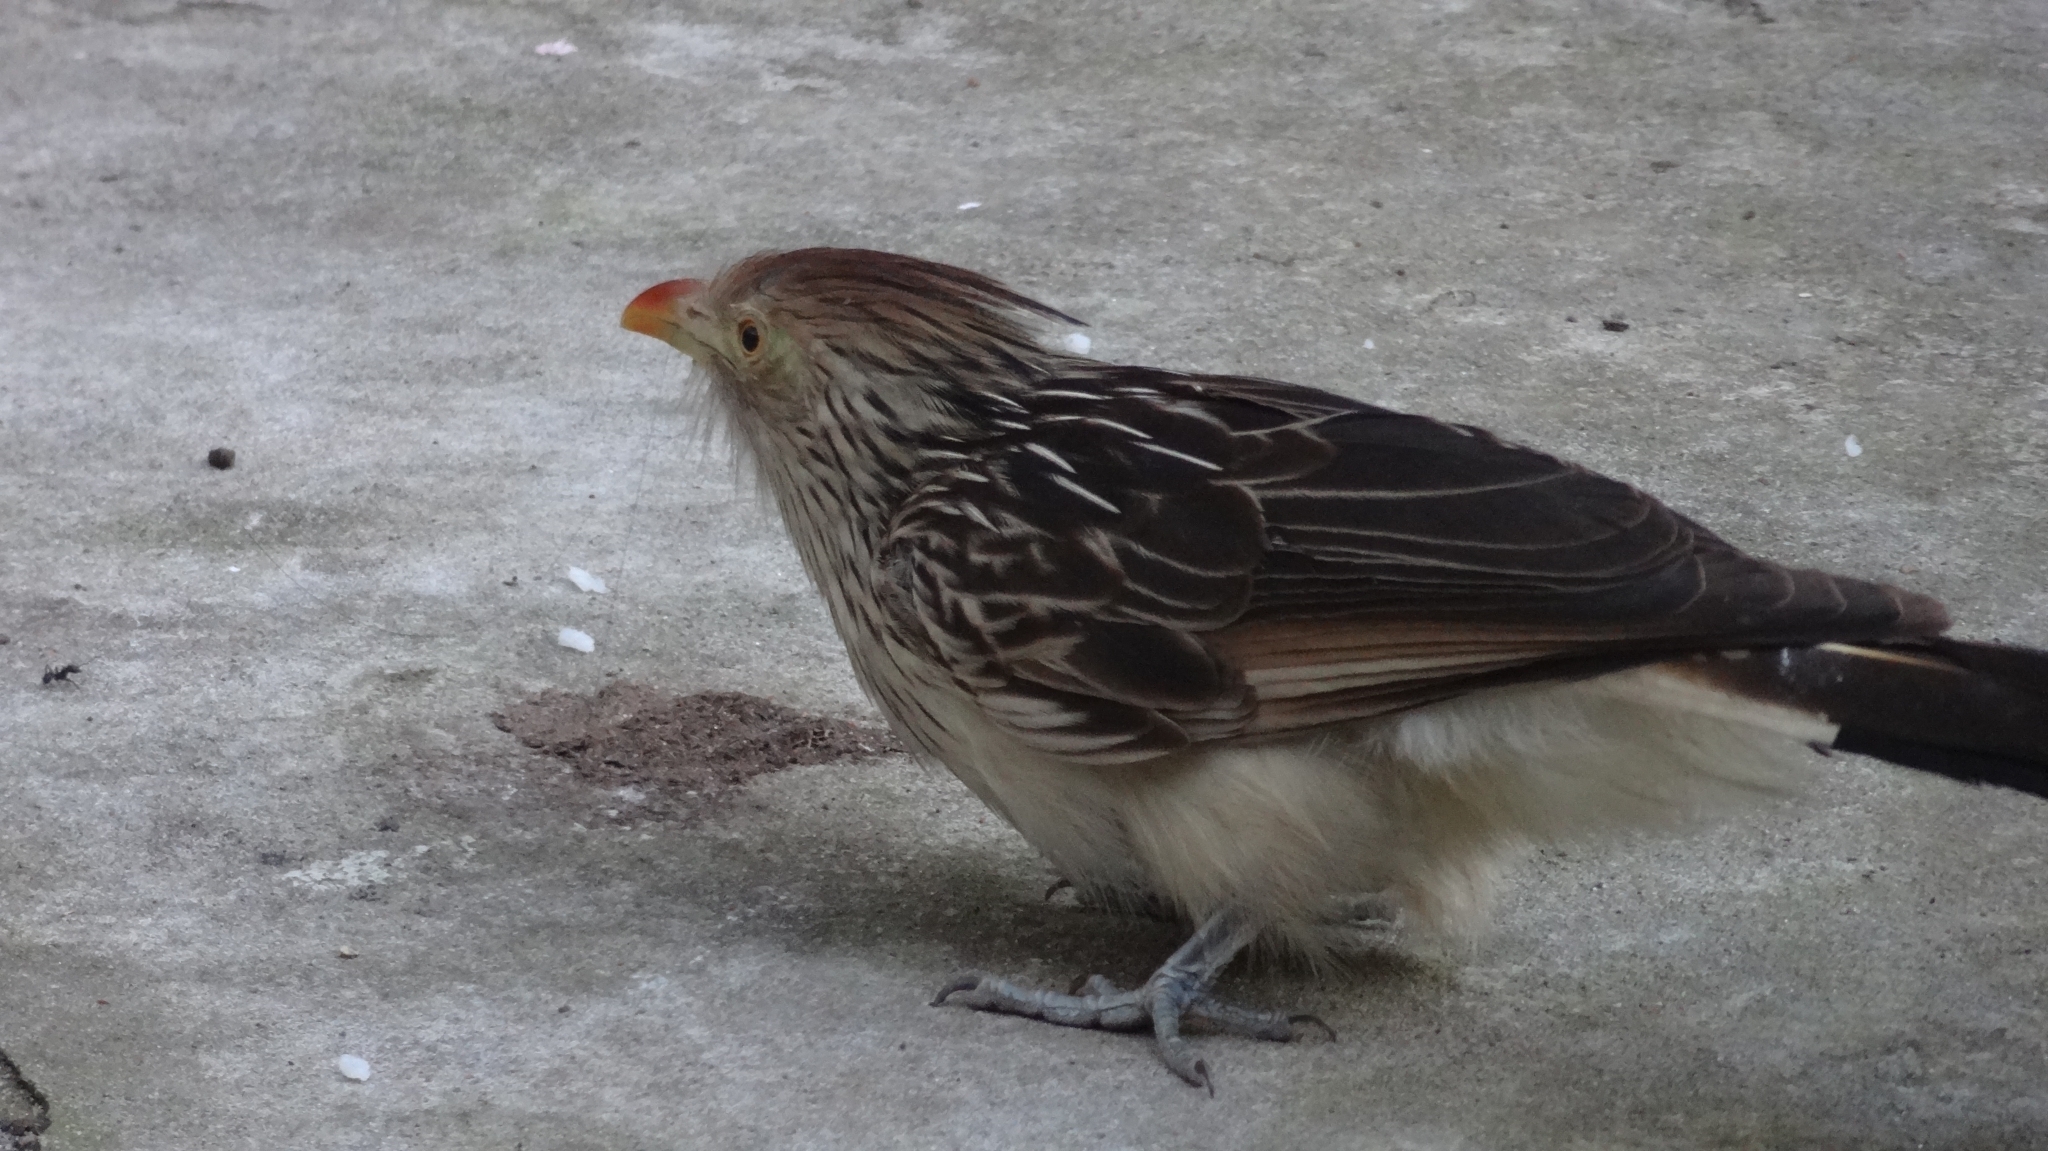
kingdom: Animalia
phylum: Chordata
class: Aves
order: Cuculiformes
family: Cuculidae
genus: Guira
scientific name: Guira guira
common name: Guira cuckoo
